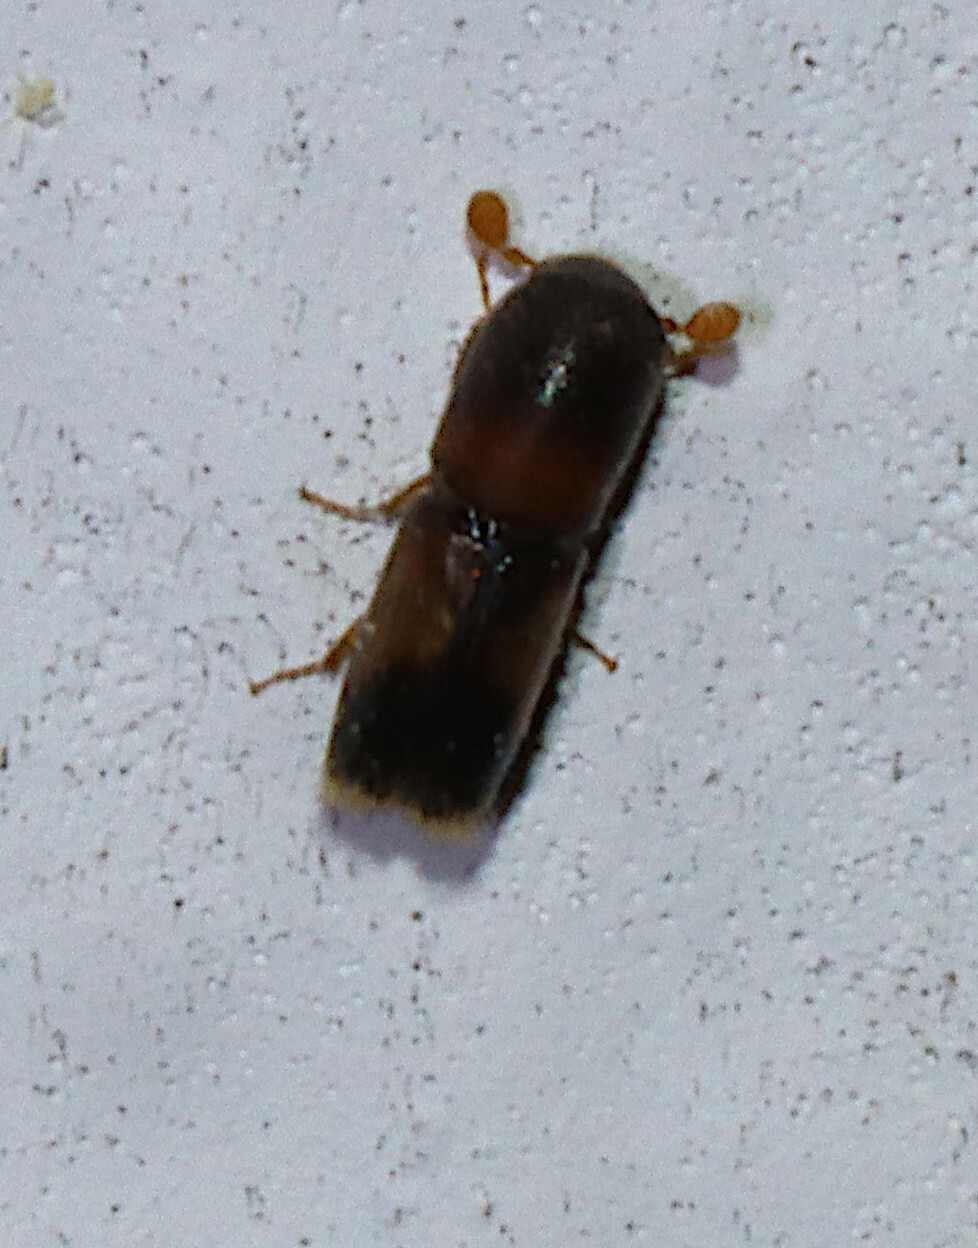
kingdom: Animalia
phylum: Arthropoda
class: Insecta
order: Coleoptera
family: Curculionidae
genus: Monarthrum
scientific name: Monarthrum fasciatum
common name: Yellow-banded timber beetle
